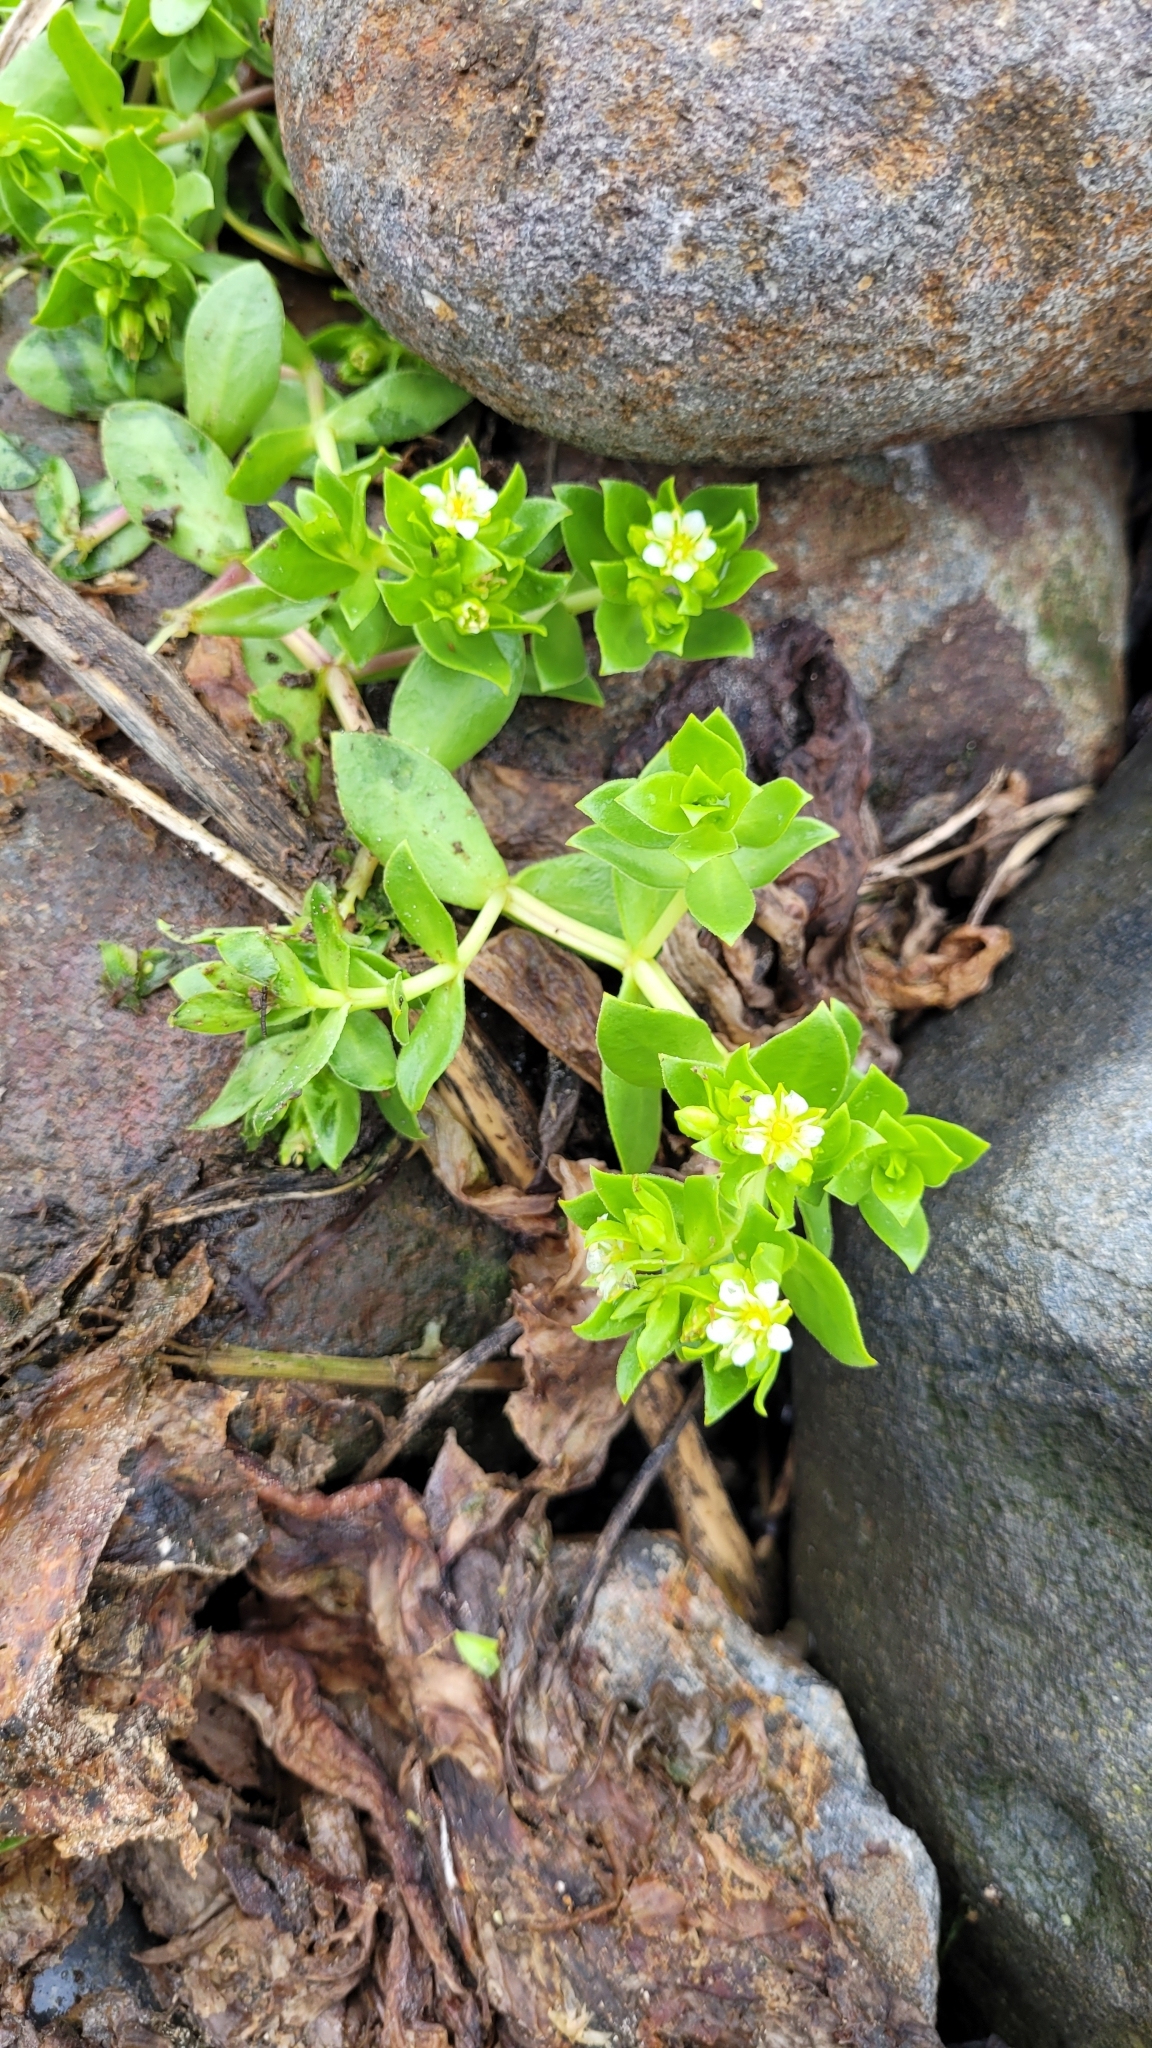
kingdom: Plantae
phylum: Tracheophyta
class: Magnoliopsida
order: Caryophyllales
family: Caryophyllaceae
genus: Honckenya
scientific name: Honckenya peploides
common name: Sea sandwort
